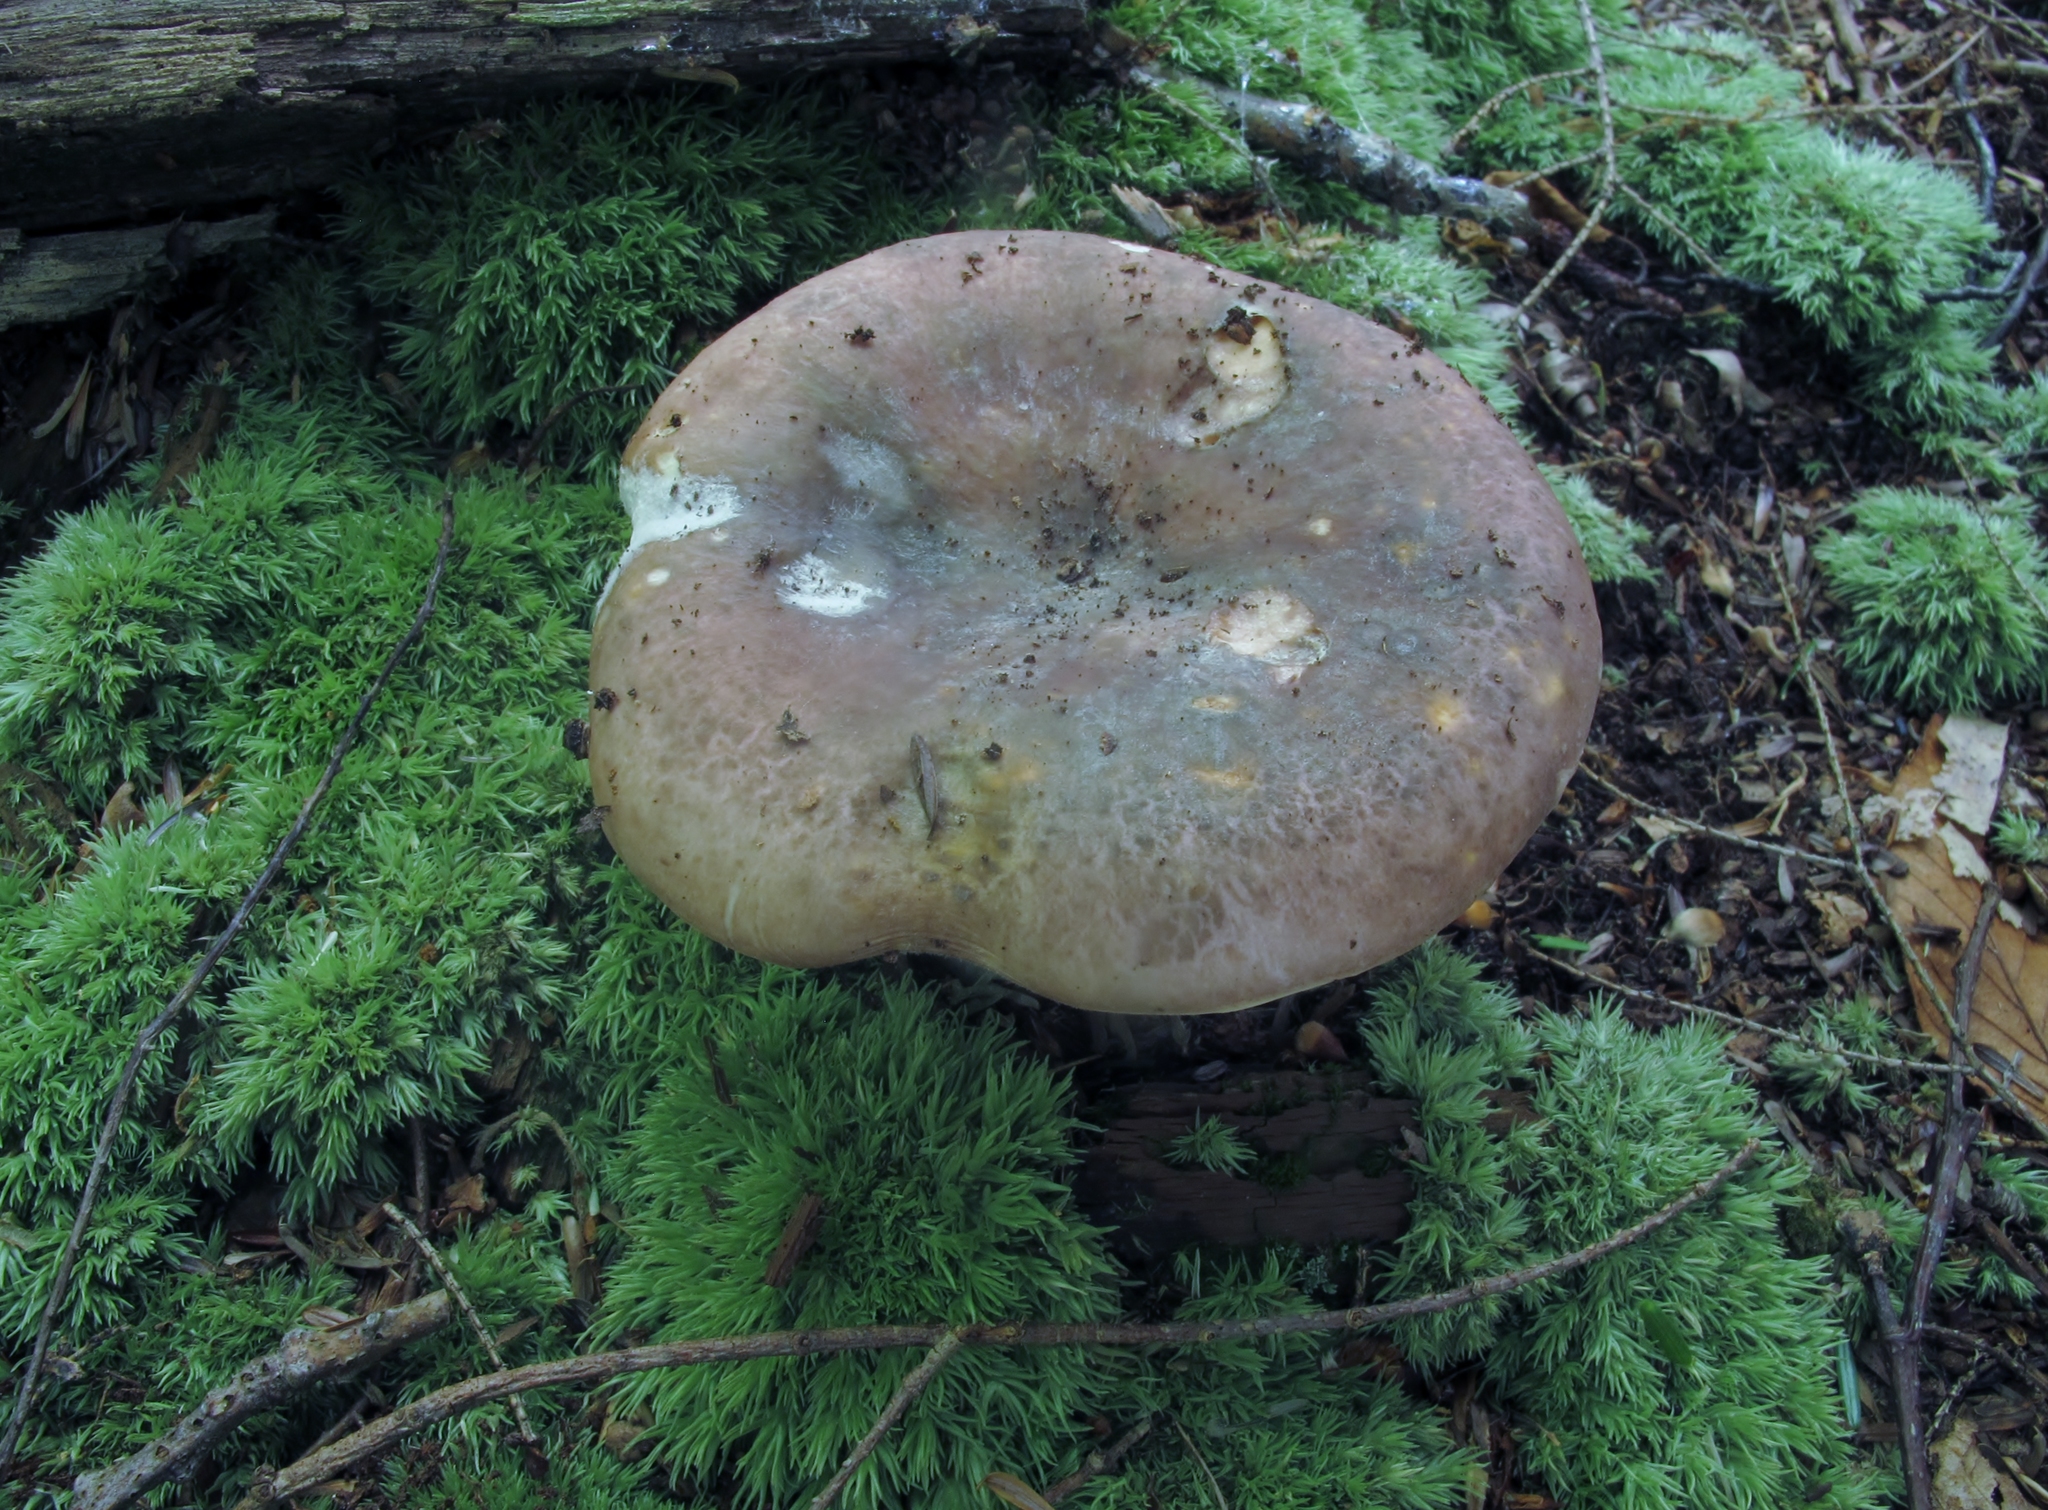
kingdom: Fungi
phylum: Basidiomycota
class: Agaricomycetes
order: Russulales
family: Russulaceae
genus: Russula
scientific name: Russula cyanoxantha
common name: Charcoal burner
